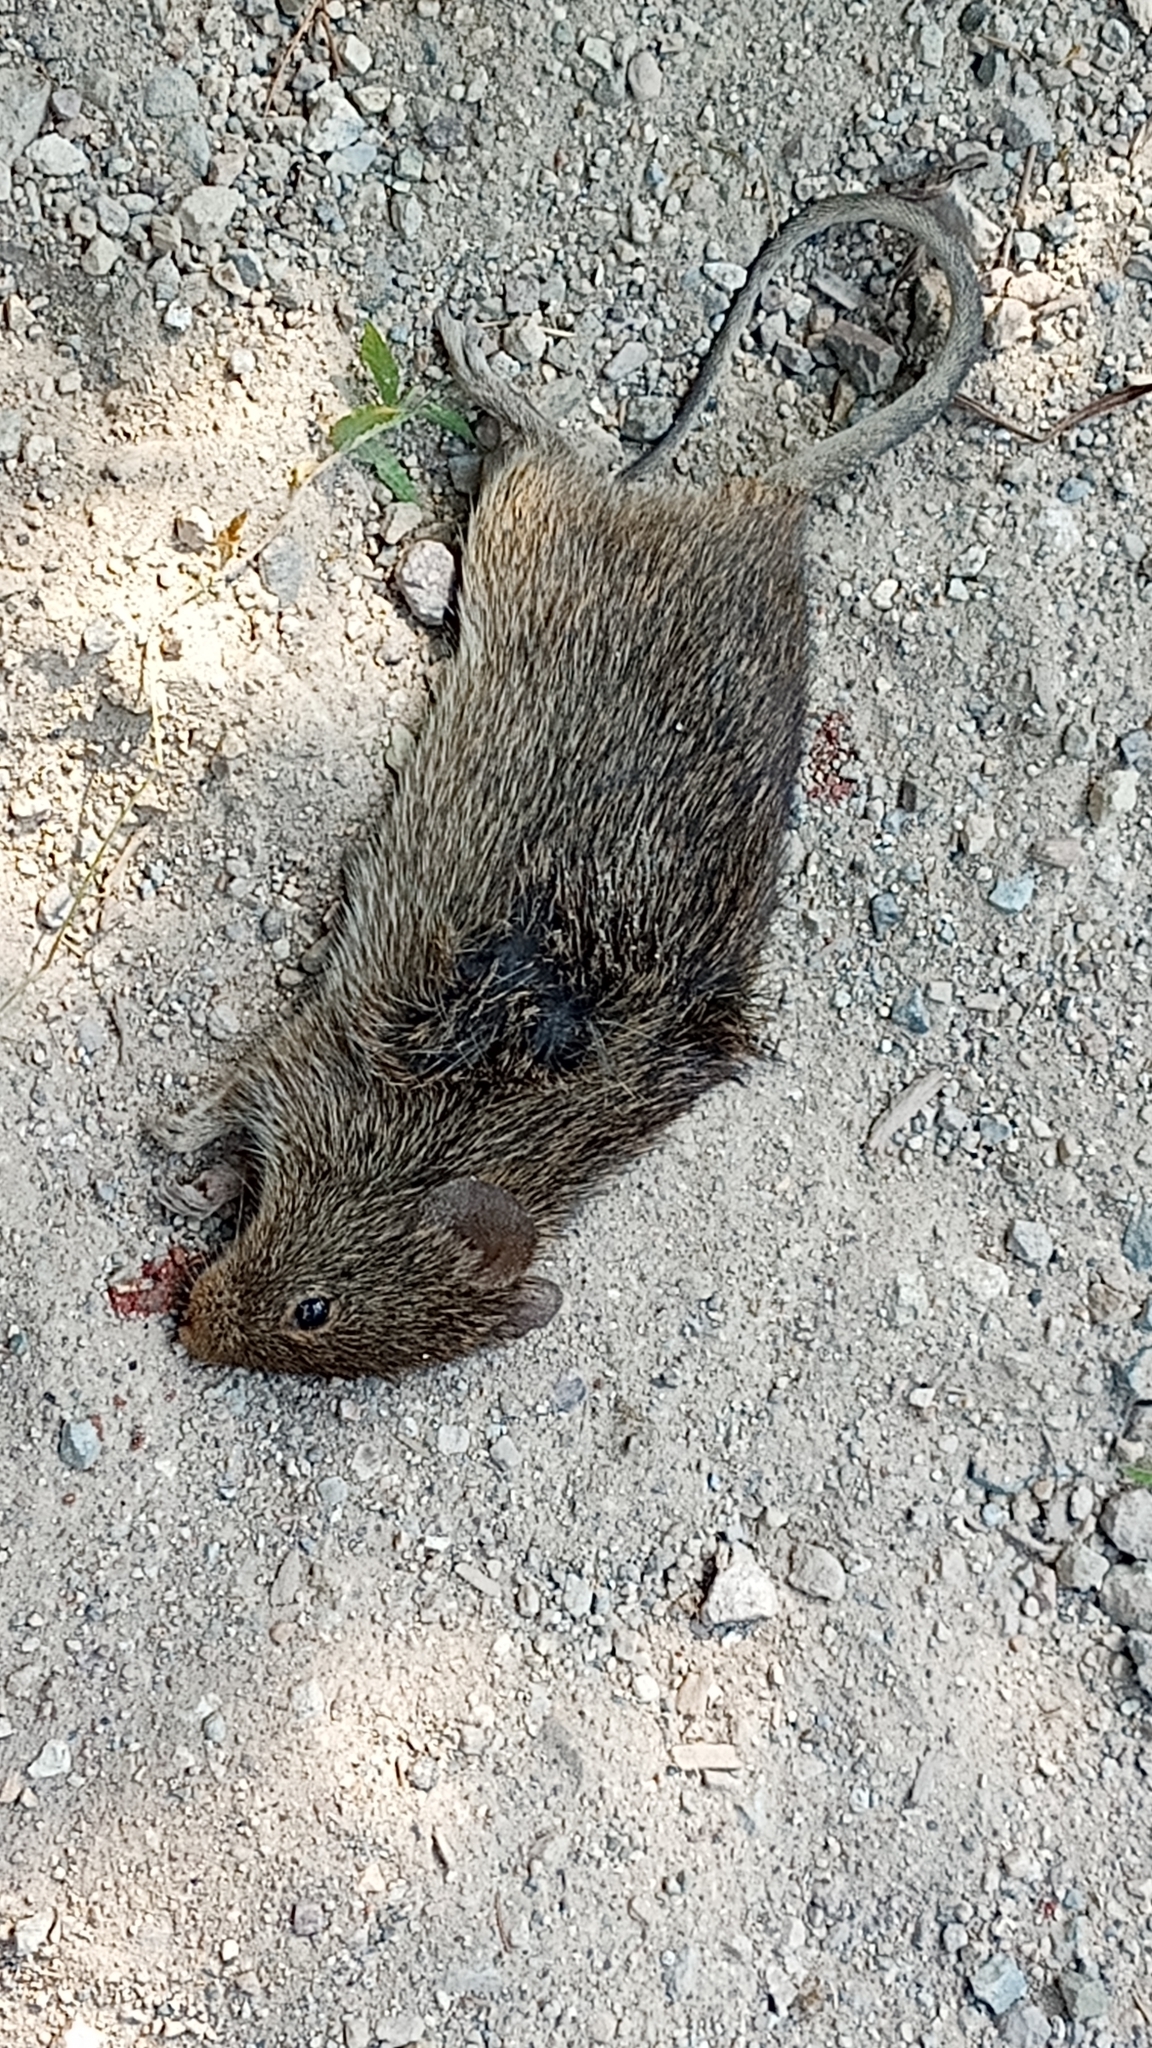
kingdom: Animalia
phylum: Chordata
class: Mammalia
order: Rodentia
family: Cricetidae
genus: Sigmodon
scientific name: Sigmodon mascotensis
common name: West mexican cotton rat
